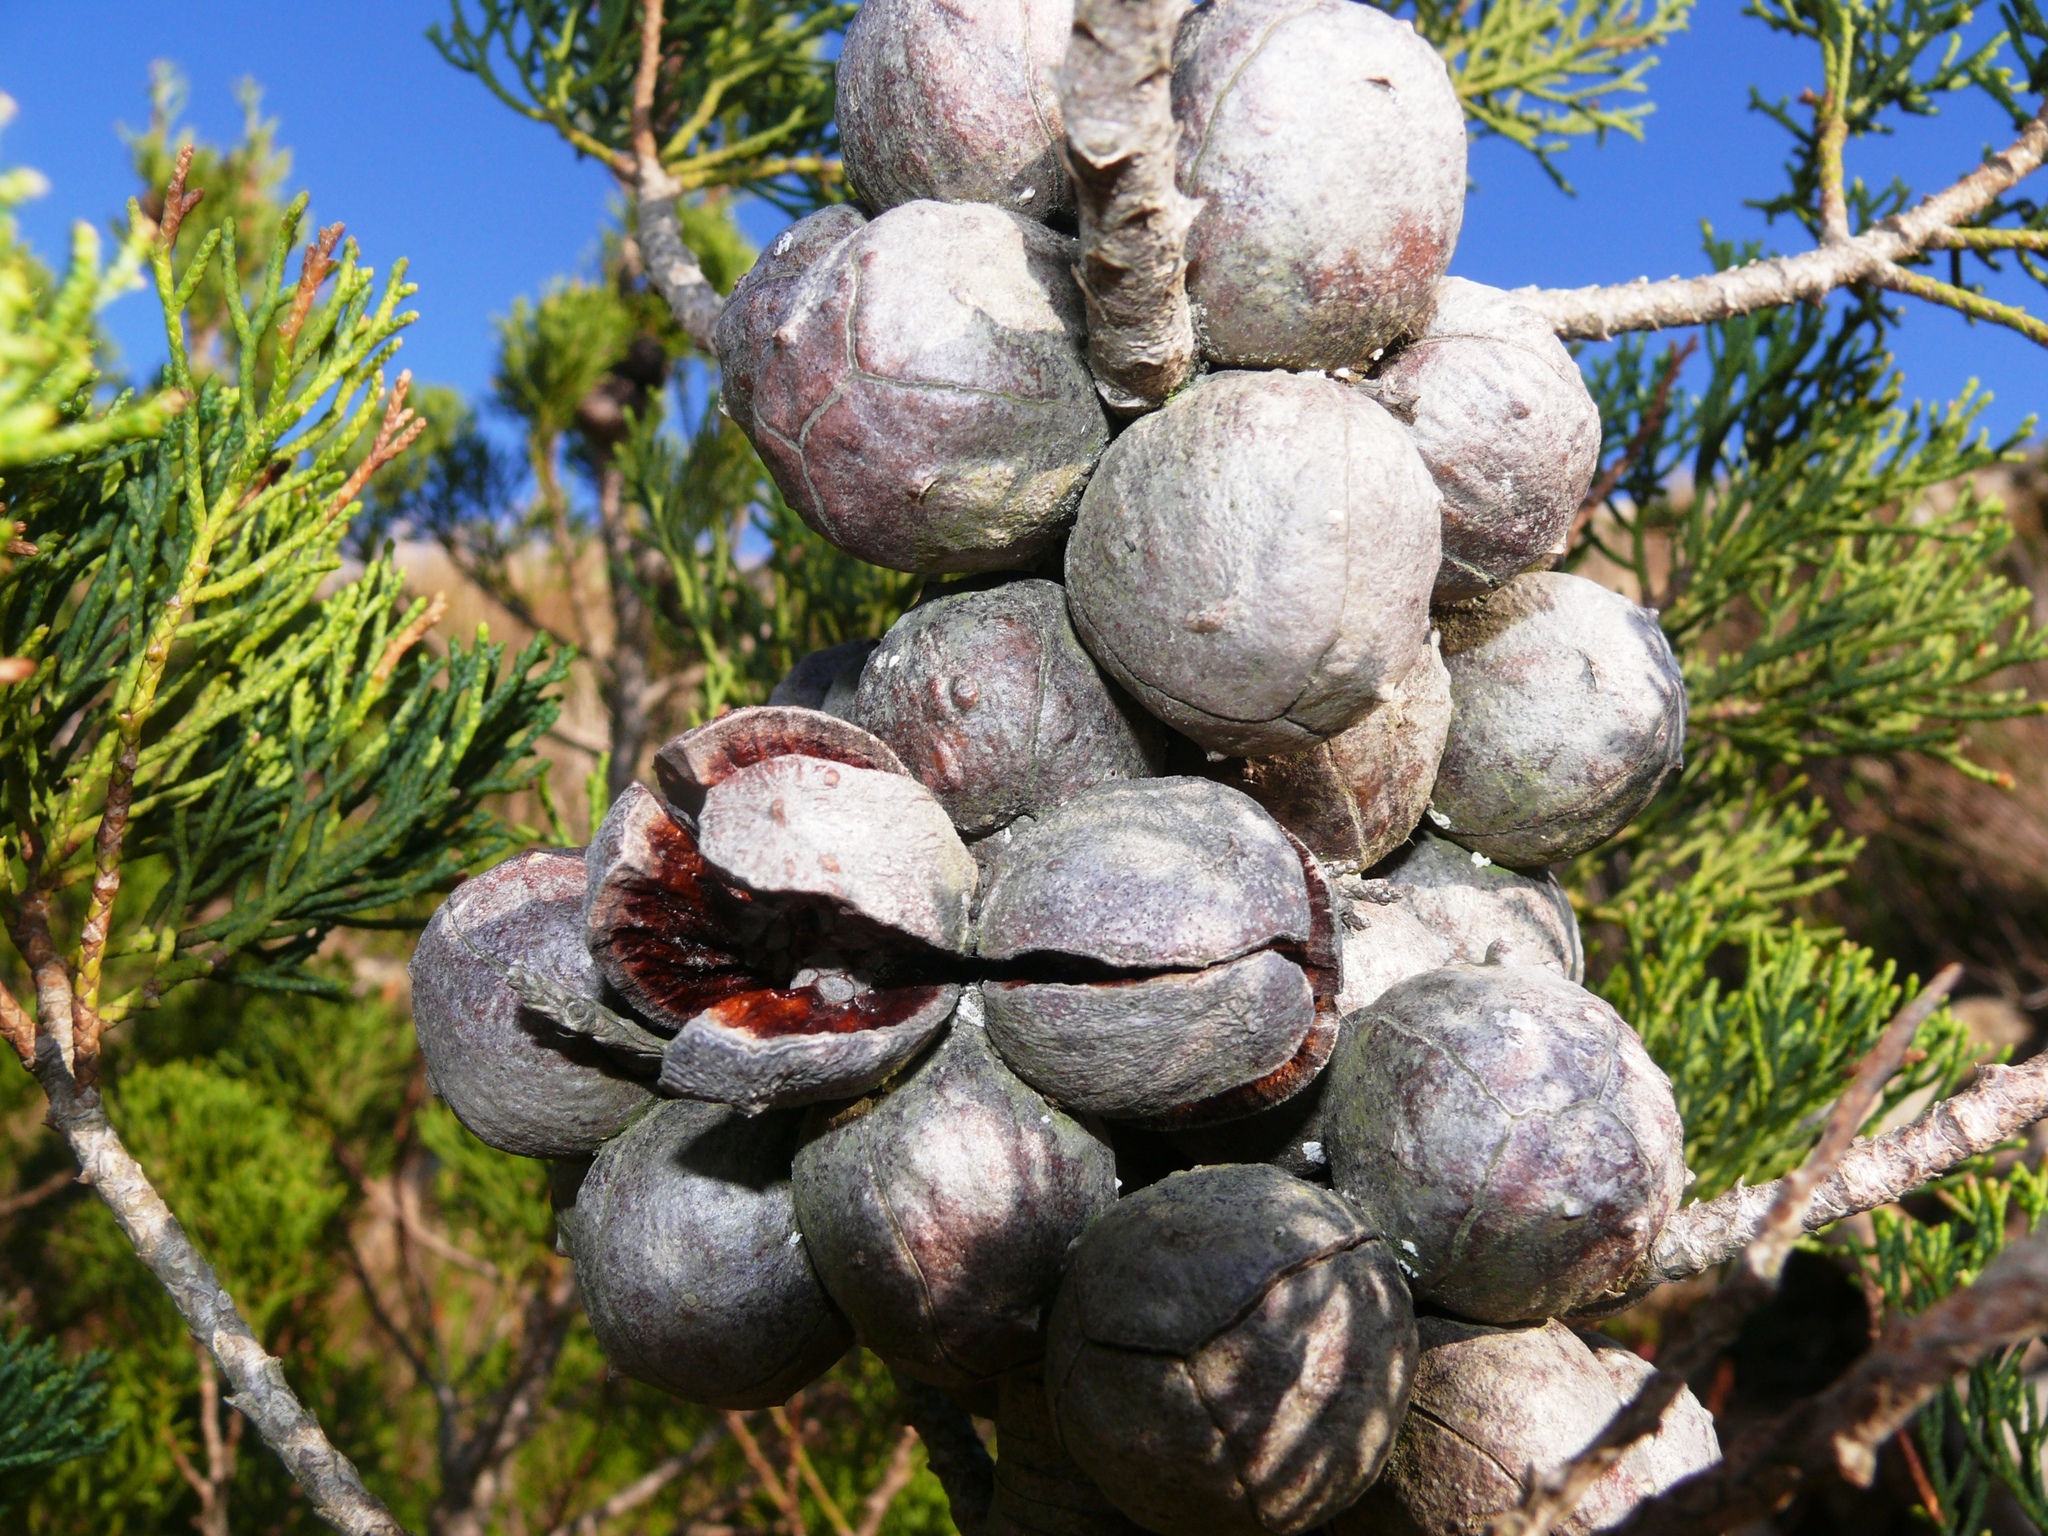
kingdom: Plantae
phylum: Tracheophyta
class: Pinopsida
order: Pinales
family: Cupressaceae
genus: Widdringtonia
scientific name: Widdringtonia nodiflora
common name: Cape cypress
